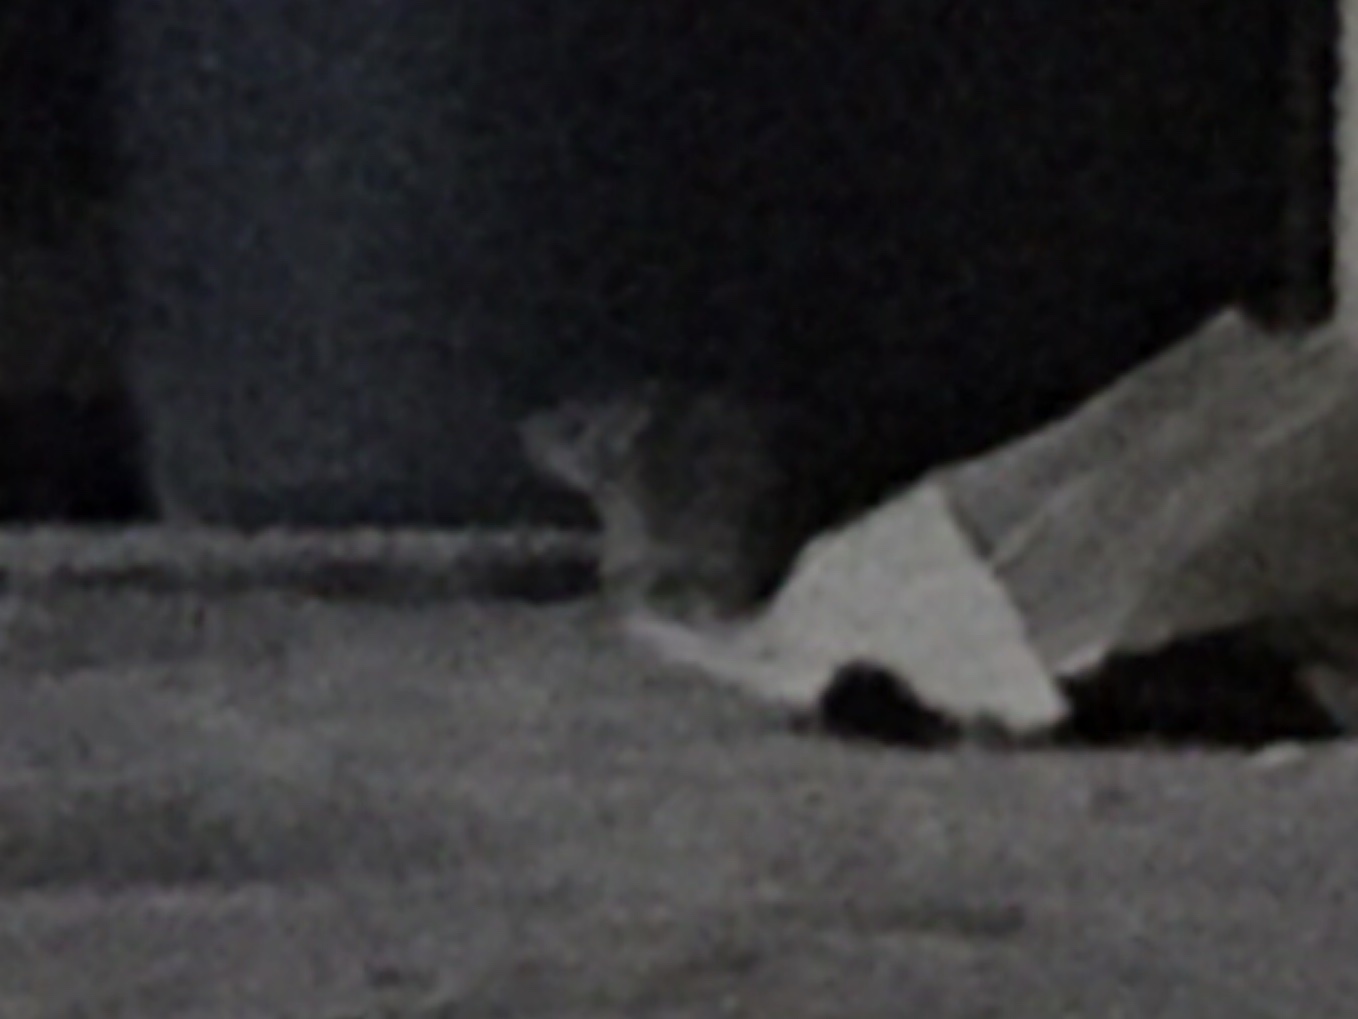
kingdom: Animalia
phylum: Chordata
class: Mammalia
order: Rodentia
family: Muridae
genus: Rattus
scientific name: Rattus norvegicus
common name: Brown rat
